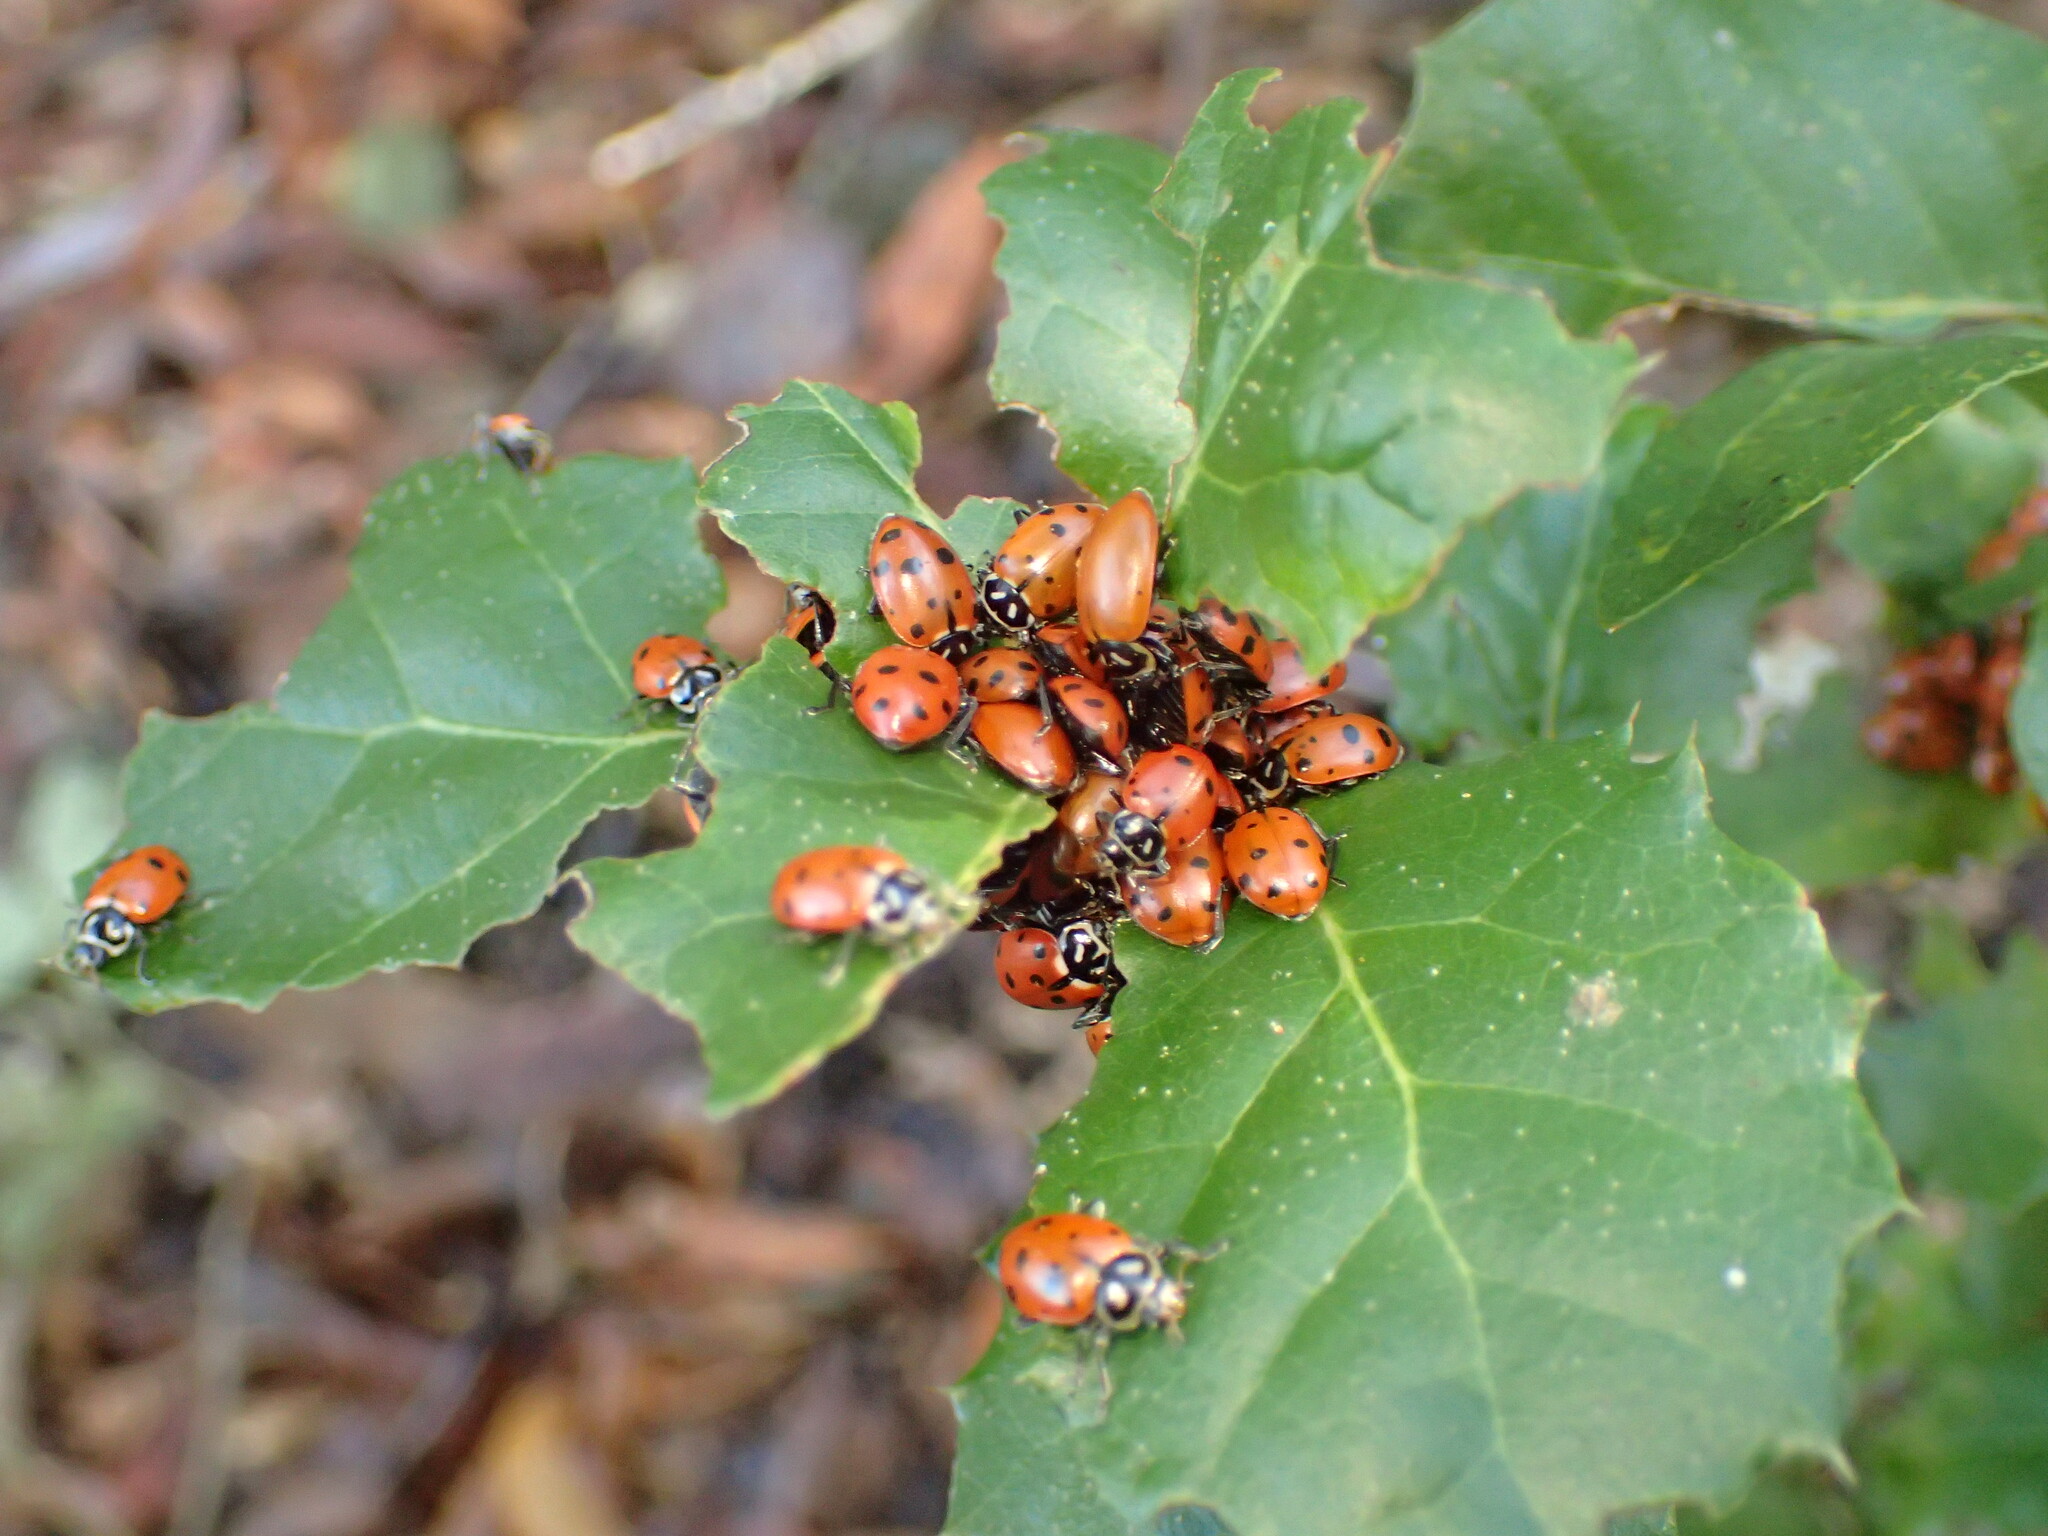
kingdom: Animalia
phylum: Arthropoda
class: Insecta
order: Coleoptera
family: Coccinellidae
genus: Hippodamia
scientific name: Hippodamia convergens
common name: Convergent lady beetle
